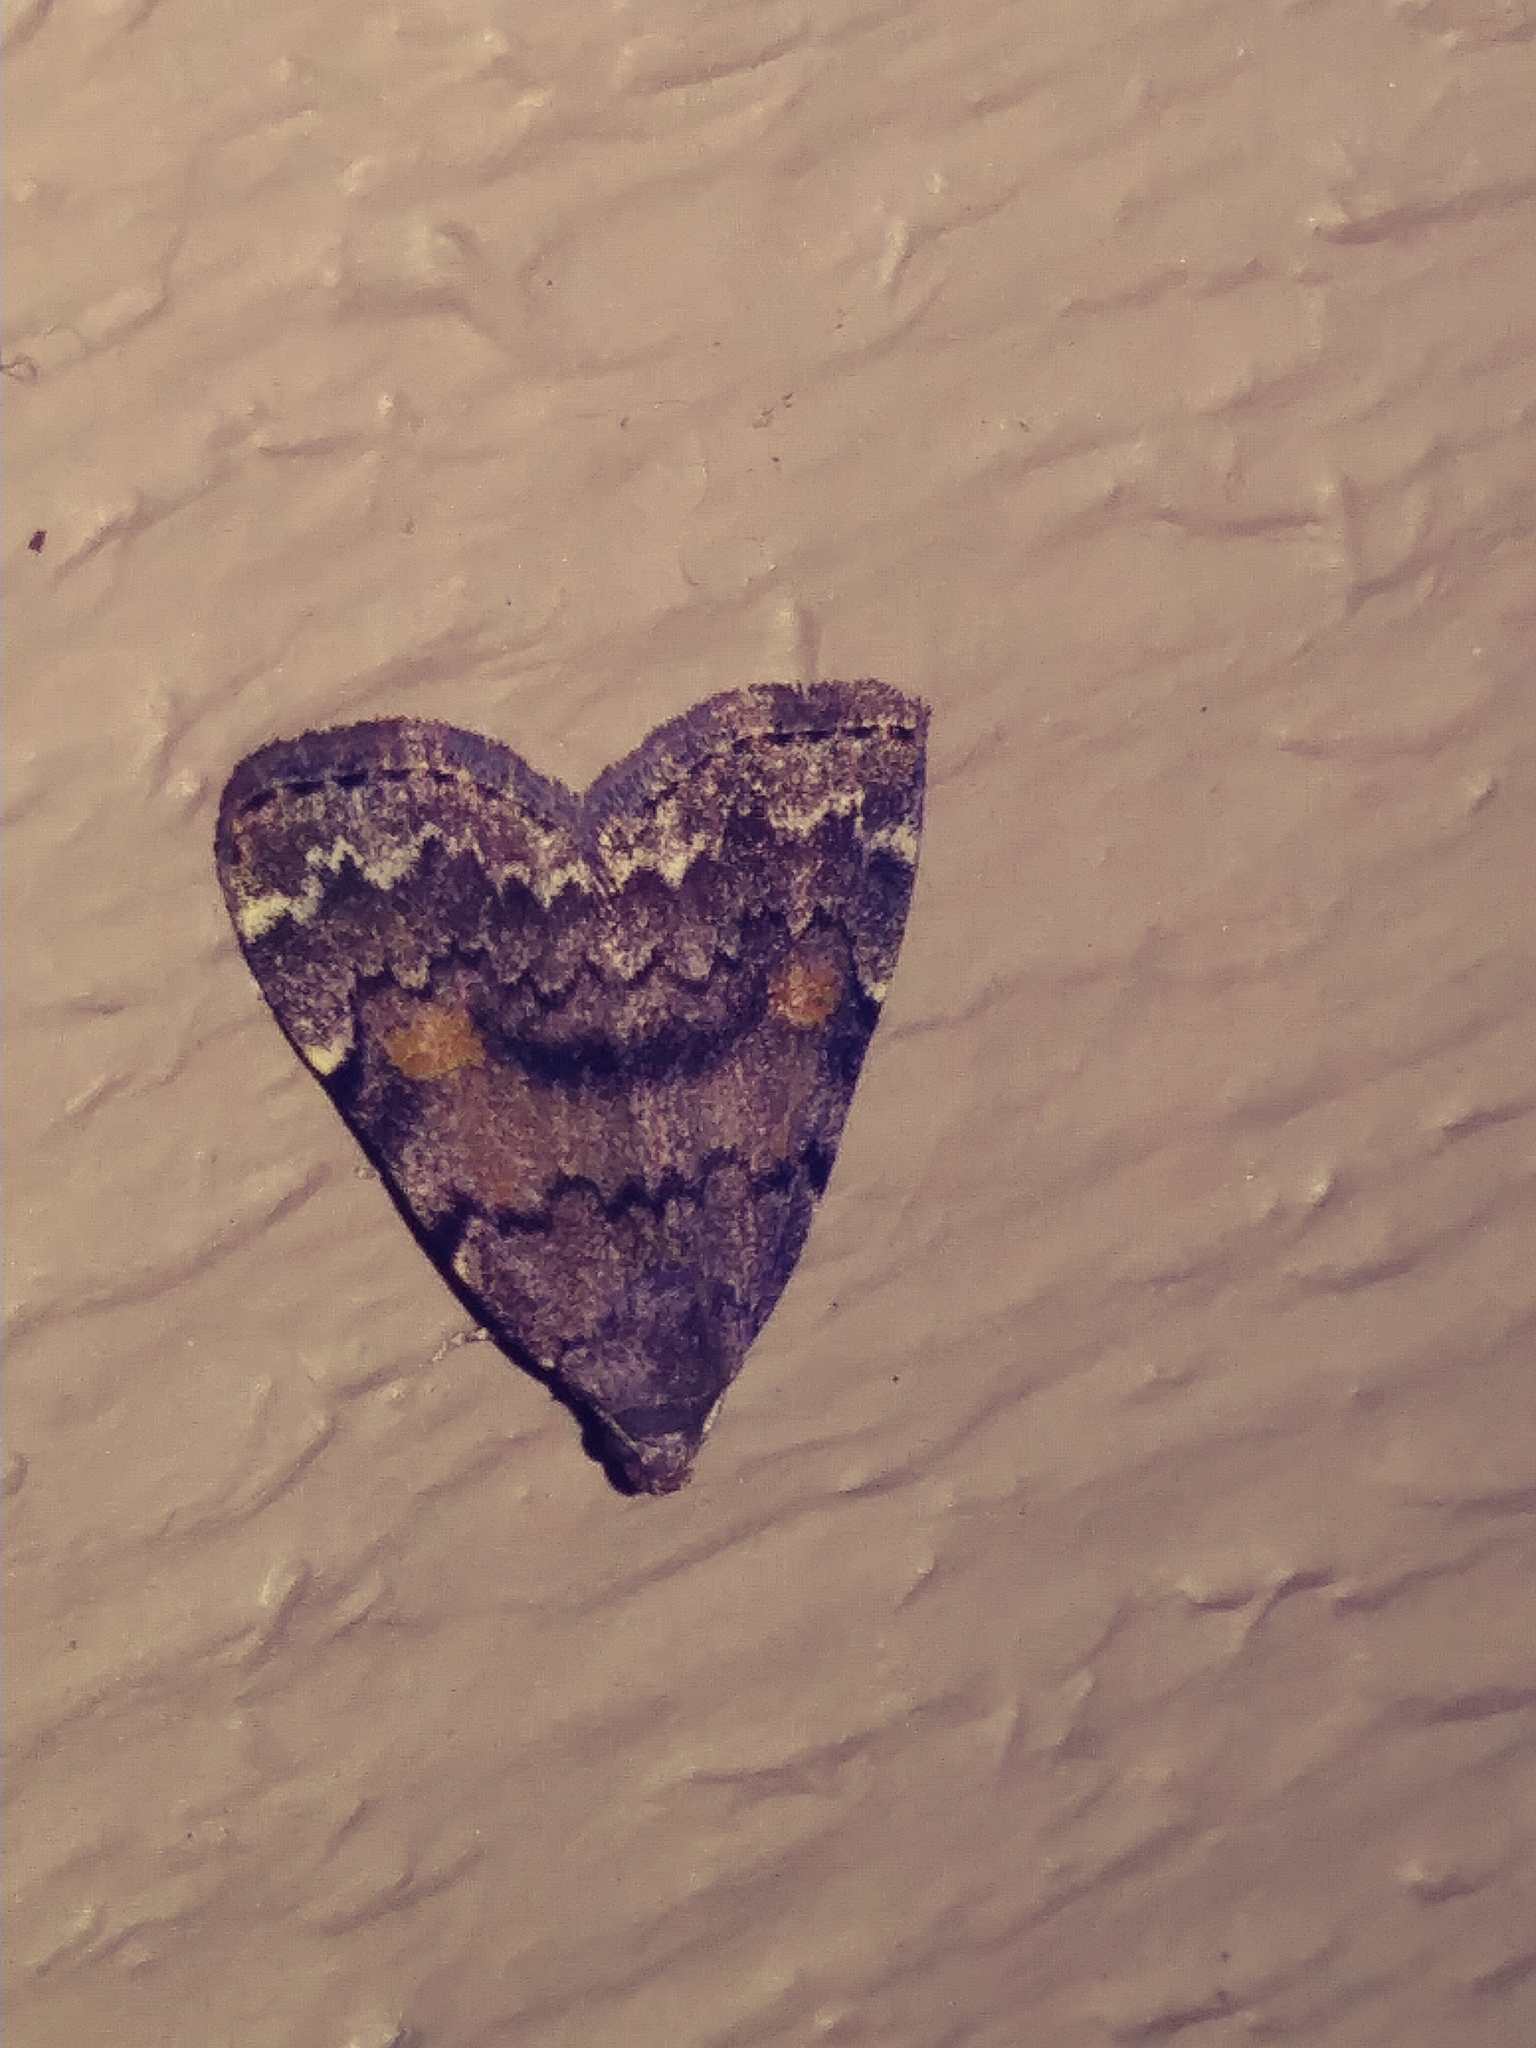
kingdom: Animalia
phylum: Arthropoda
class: Insecta
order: Lepidoptera
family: Erebidae
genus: Idia
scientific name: Idia aemula
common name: Common idia moth
